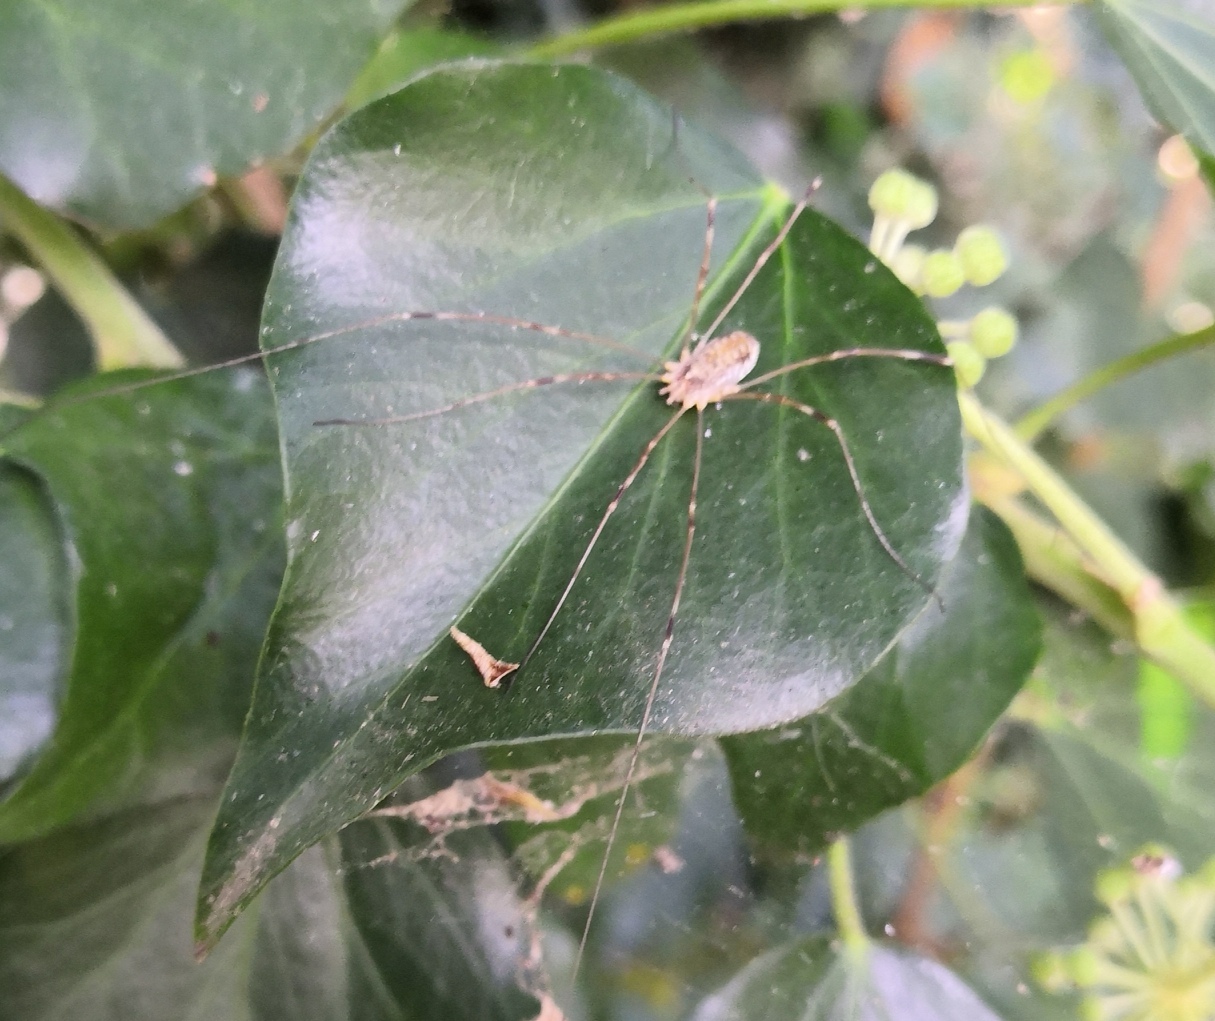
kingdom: Animalia
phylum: Arthropoda
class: Arachnida
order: Opiliones
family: Phalangiidae
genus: Opilio
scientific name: Opilio canestrinii
